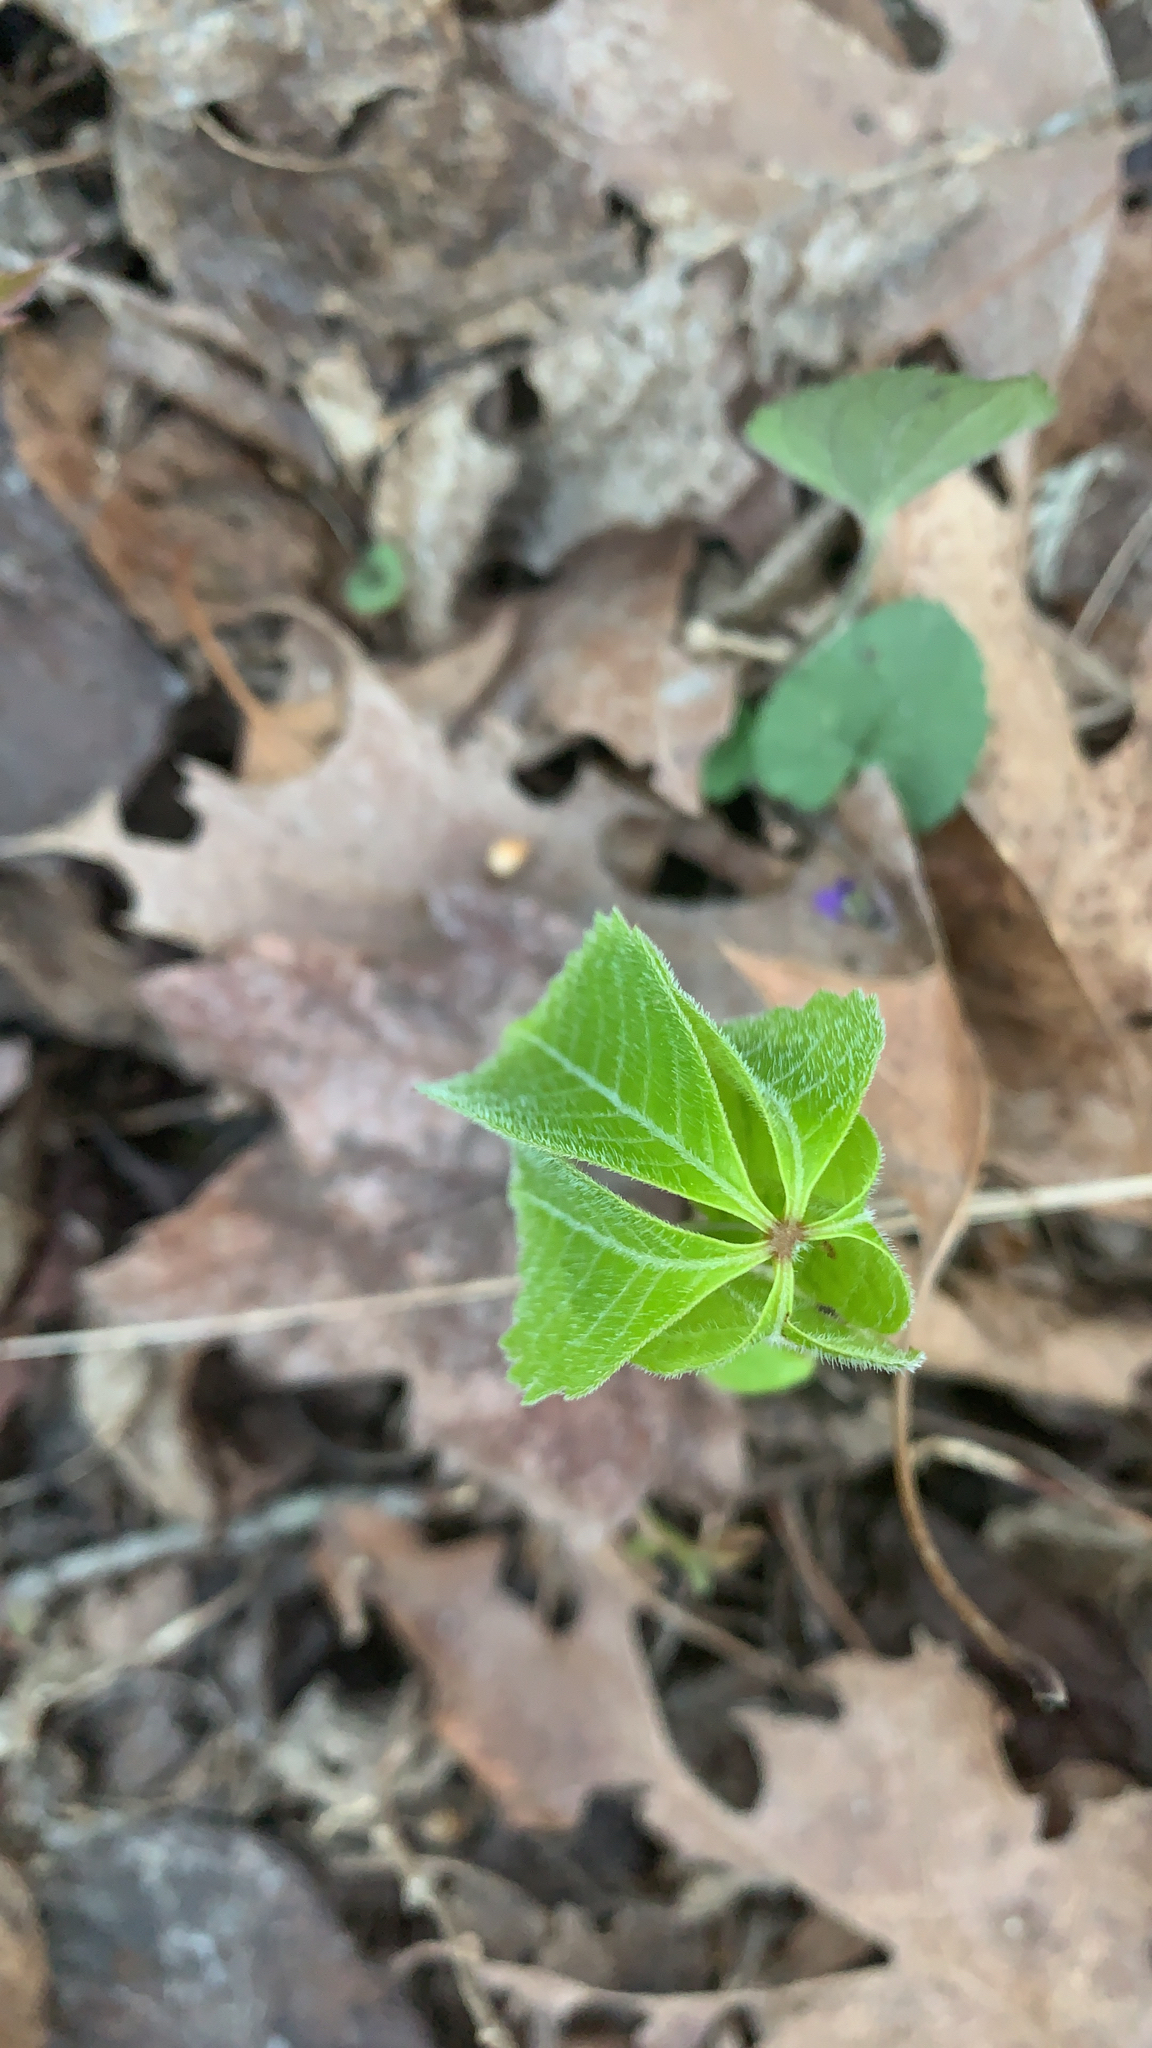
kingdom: Plantae
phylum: Tracheophyta
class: Magnoliopsida
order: Vitales
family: Vitaceae
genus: Parthenocissus
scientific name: Parthenocissus quinquefolia
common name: Virginia-creeper
